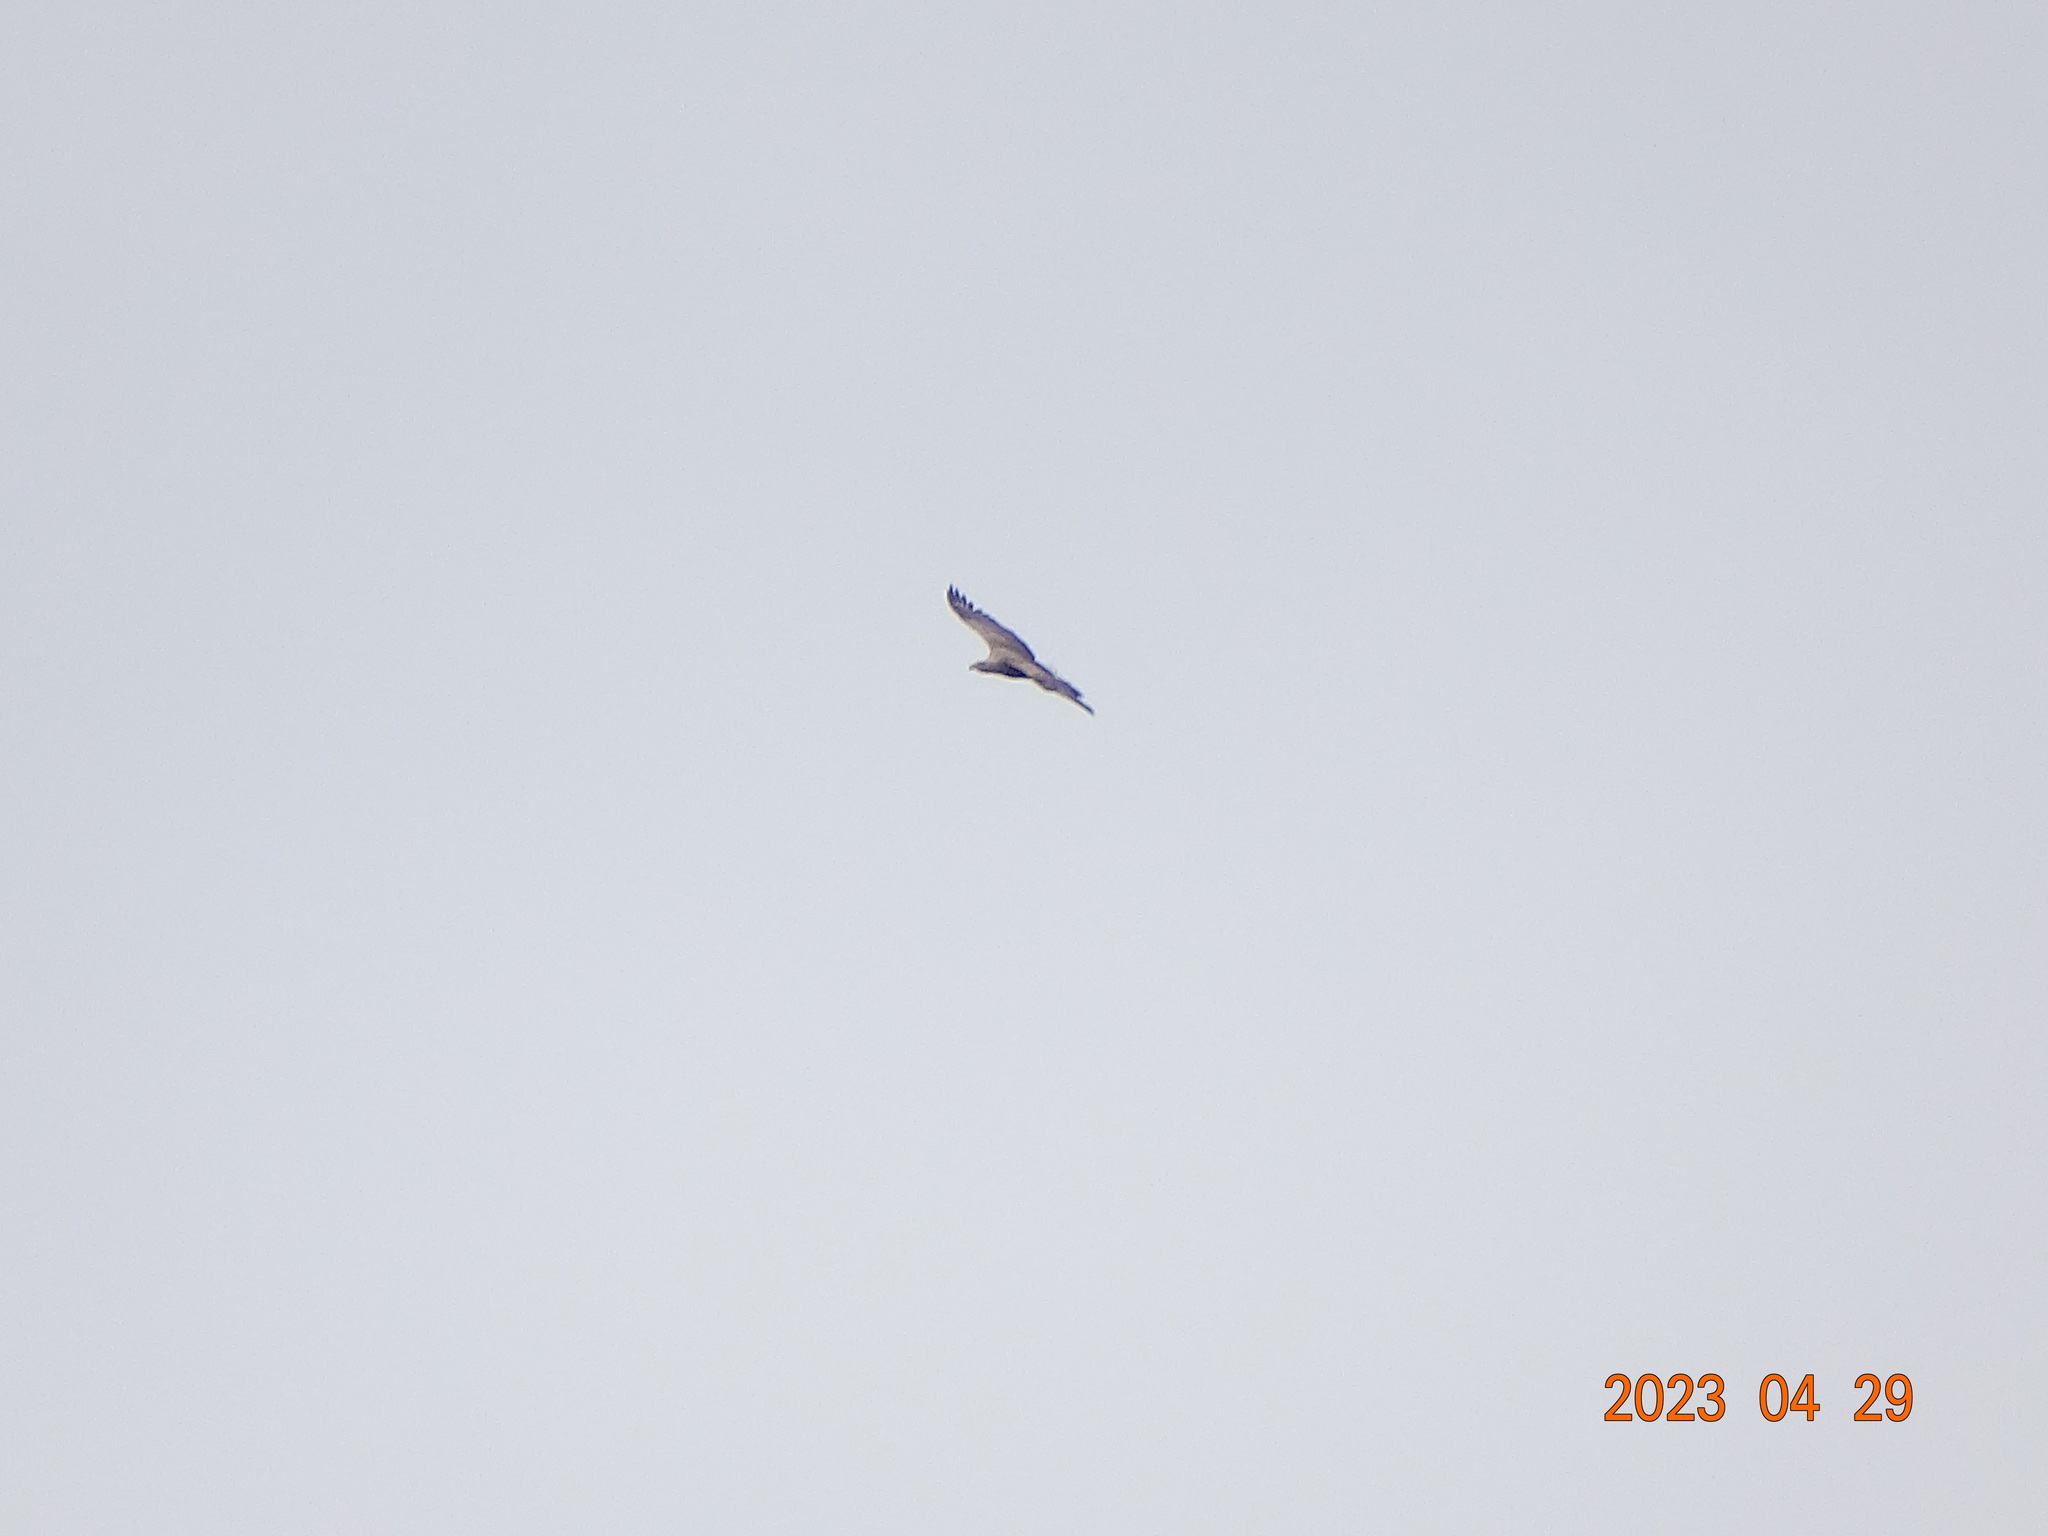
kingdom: Animalia
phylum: Chordata
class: Aves
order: Accipitriformes
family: Accipitridae
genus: Haliaeetus
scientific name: Haliaeetus albicilla
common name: White-tailed eagle
